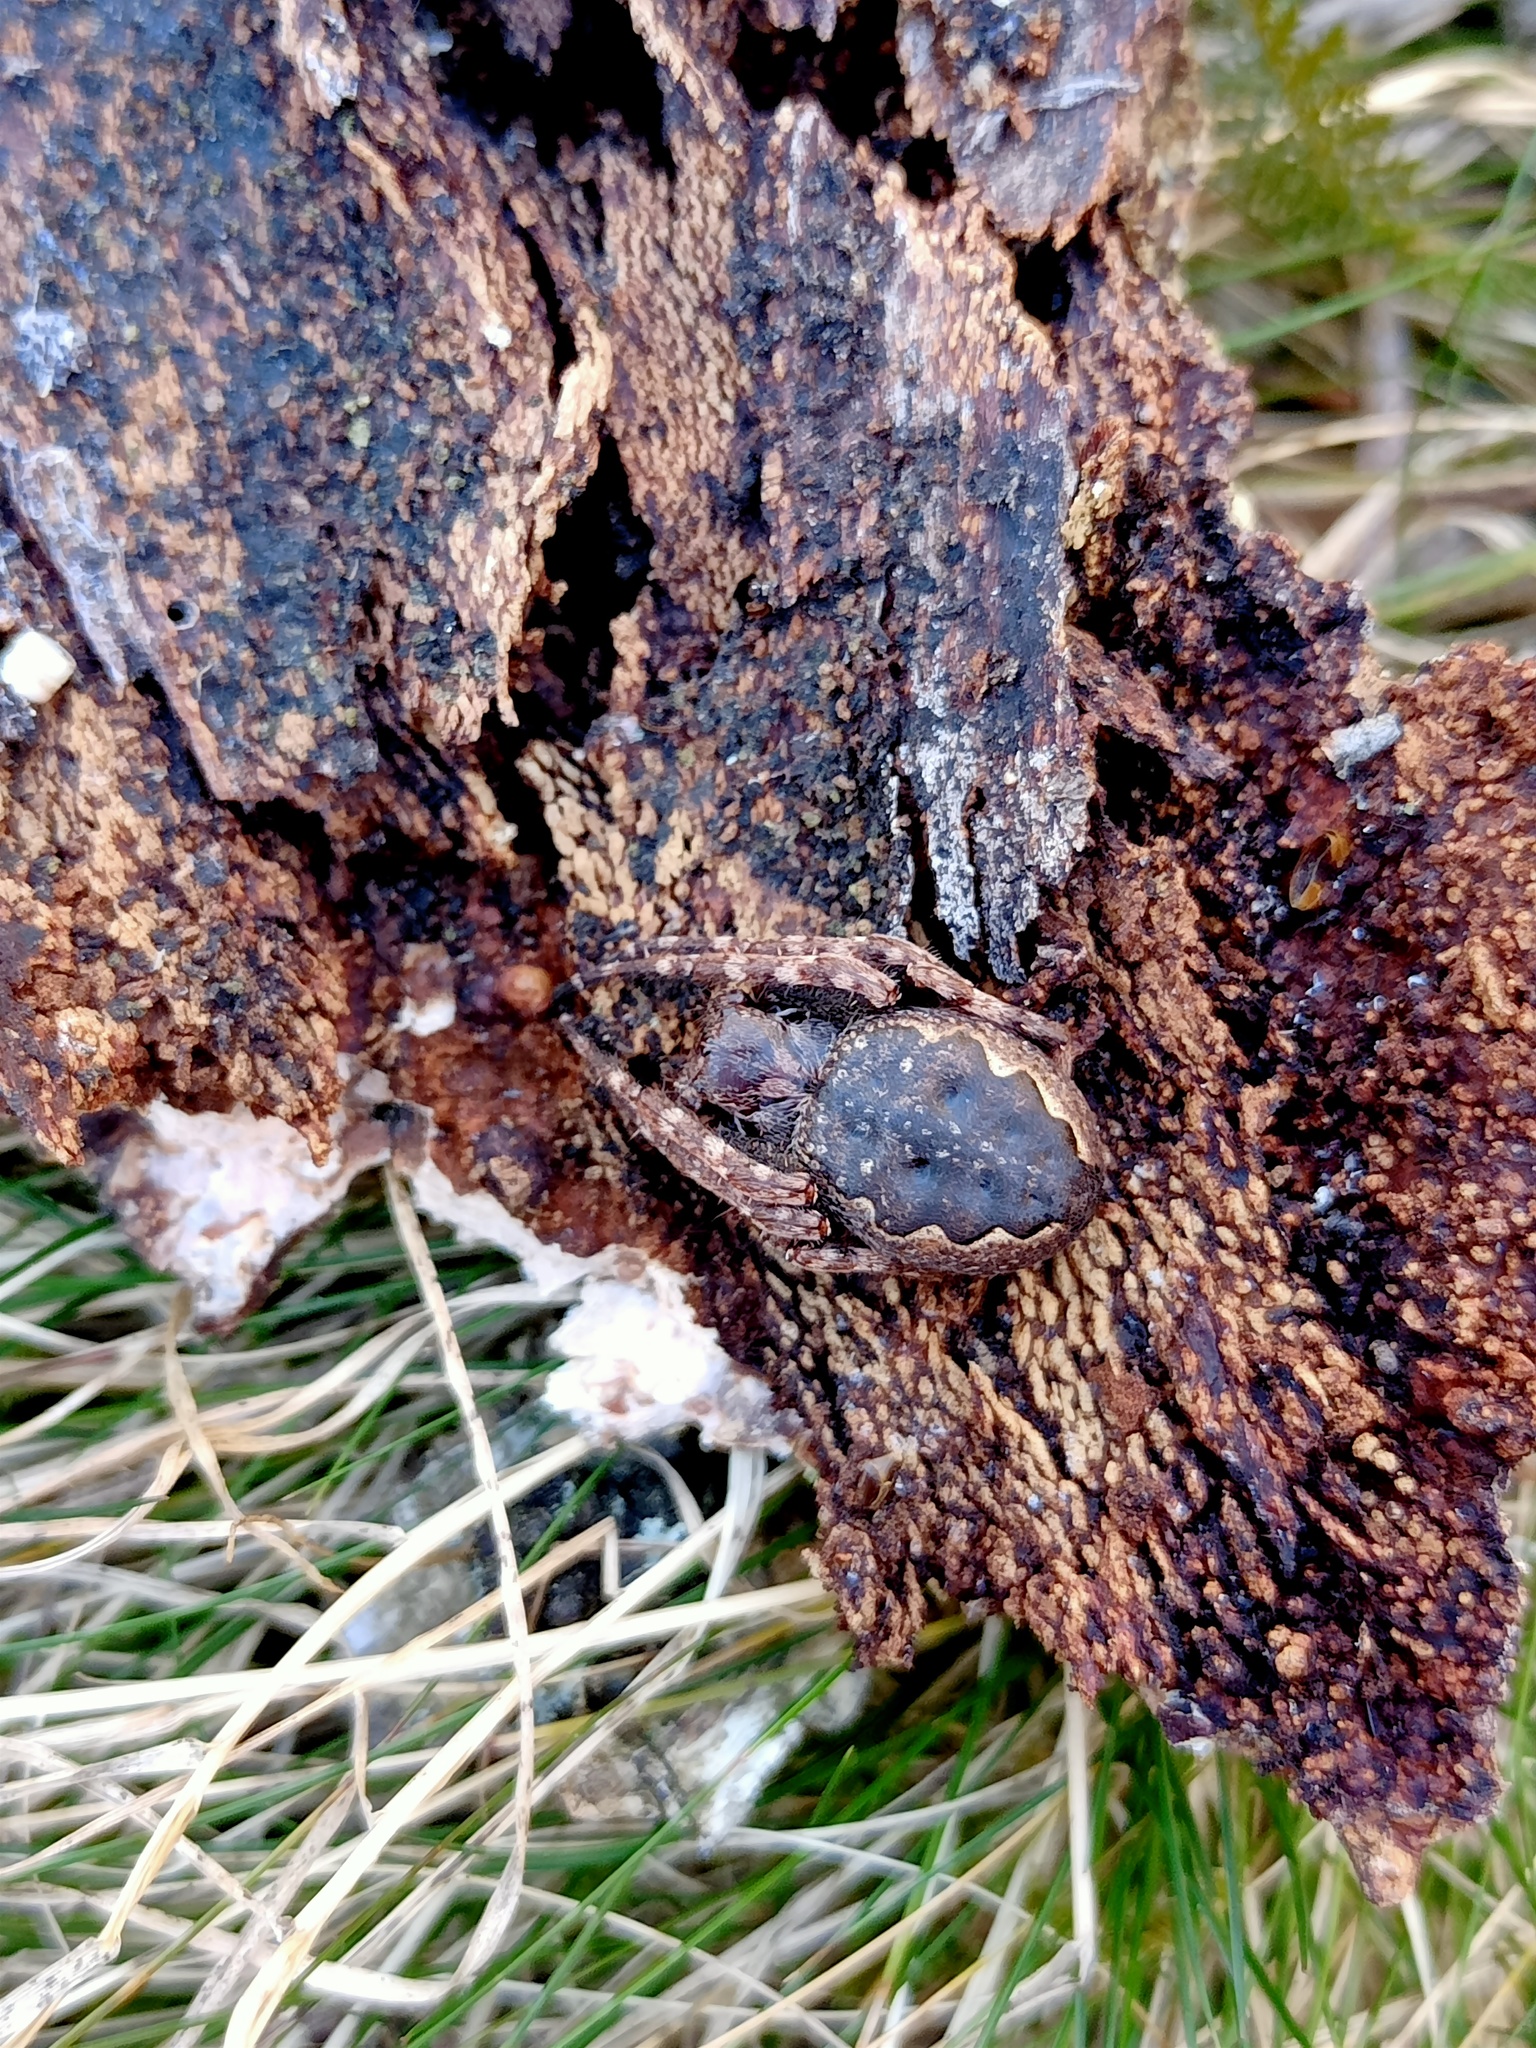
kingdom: Animalia
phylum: Arthropoda
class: Arachnida
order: Araneae
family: Araneidae
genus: Nuctenea
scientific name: Nuctenea umbratica
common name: Toad spider
